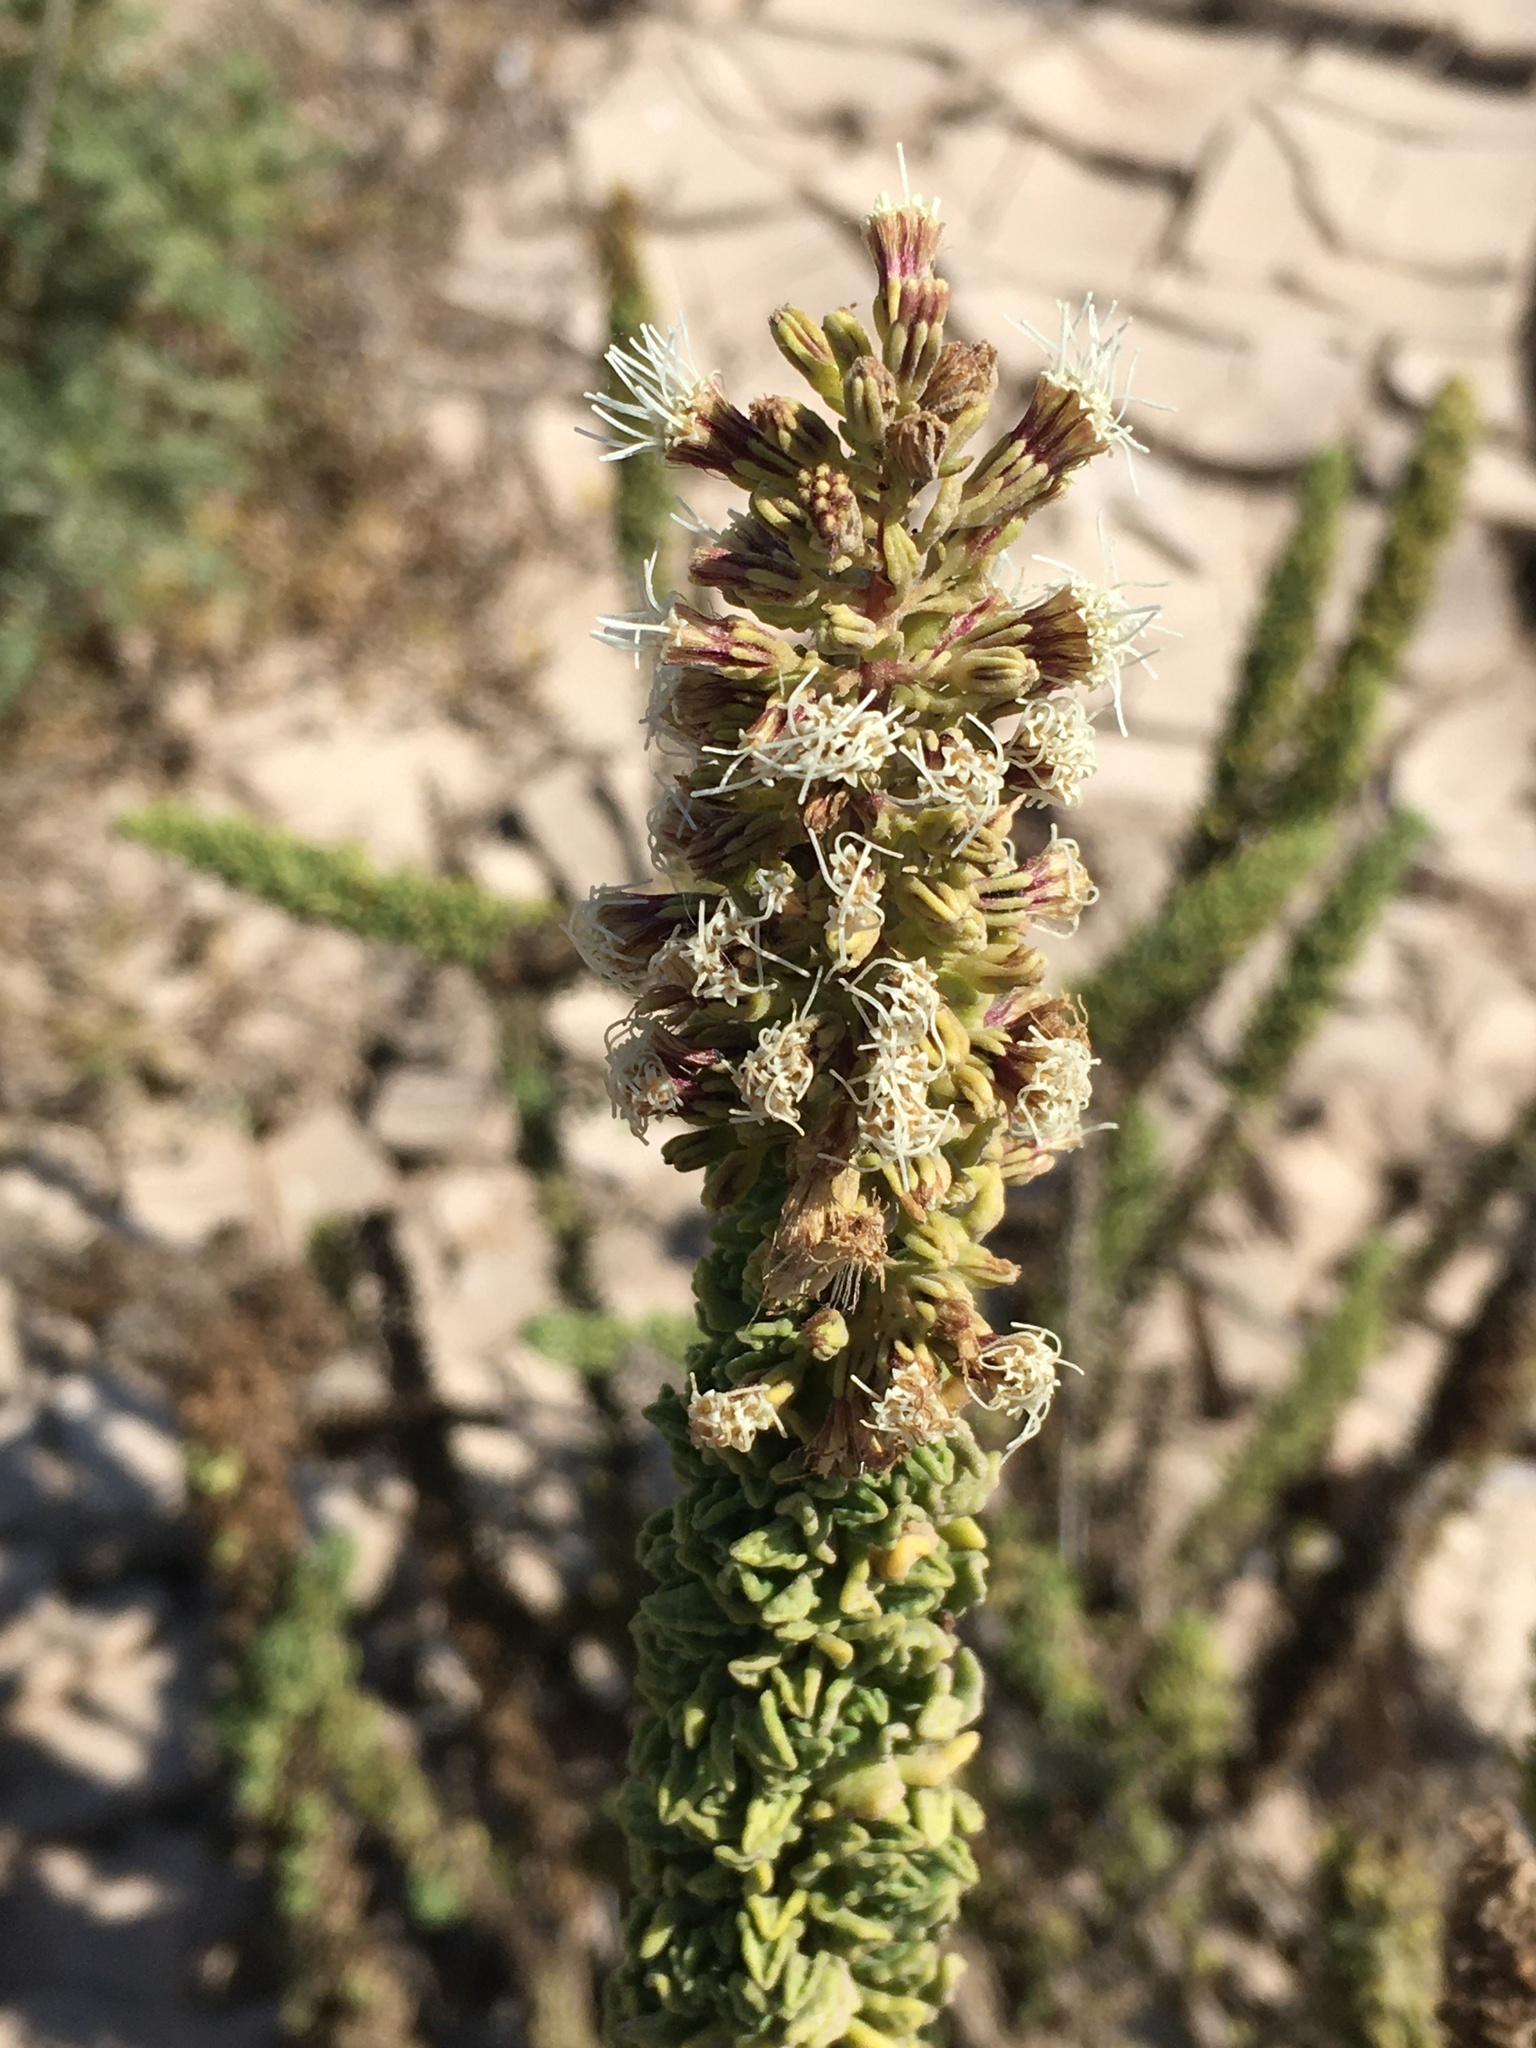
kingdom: Plantae
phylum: Tracheophyta
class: Magnoliopsida
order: Asterales
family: Asteraceae
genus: Ophryosporus
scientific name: Ophryosporus triangularis
